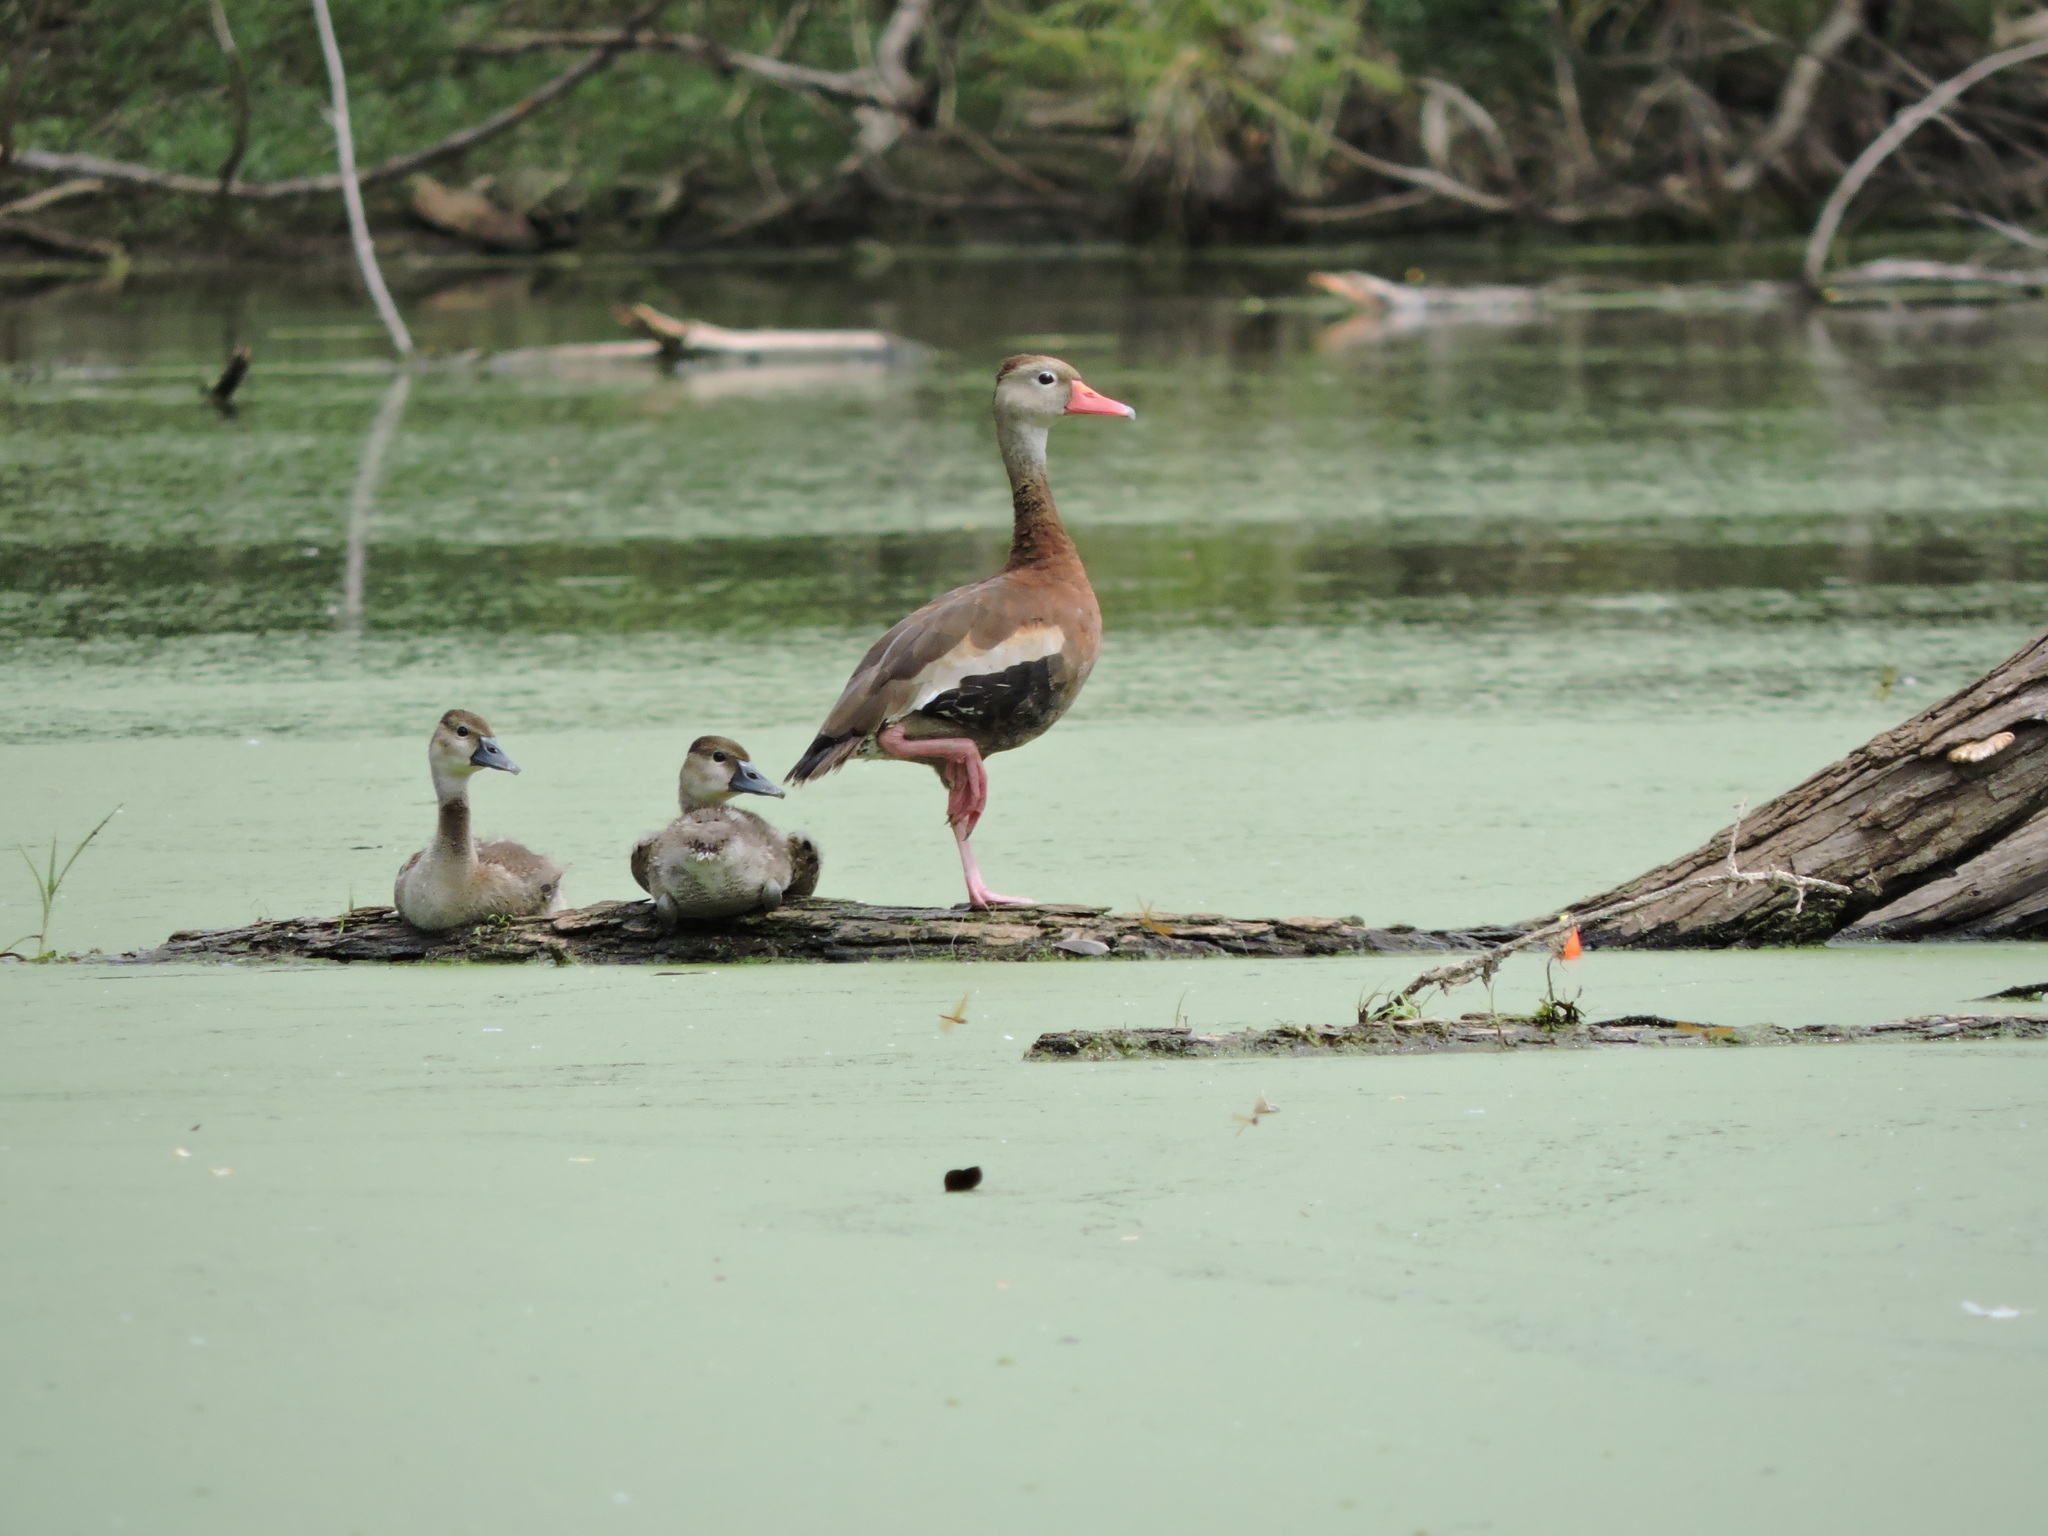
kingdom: Animalia
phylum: Chordata
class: Aves
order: Anseriformes
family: Anatidae
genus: Dendrocygna
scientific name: Dendrocygna autumnalis
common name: Black-bellied whistling duck
